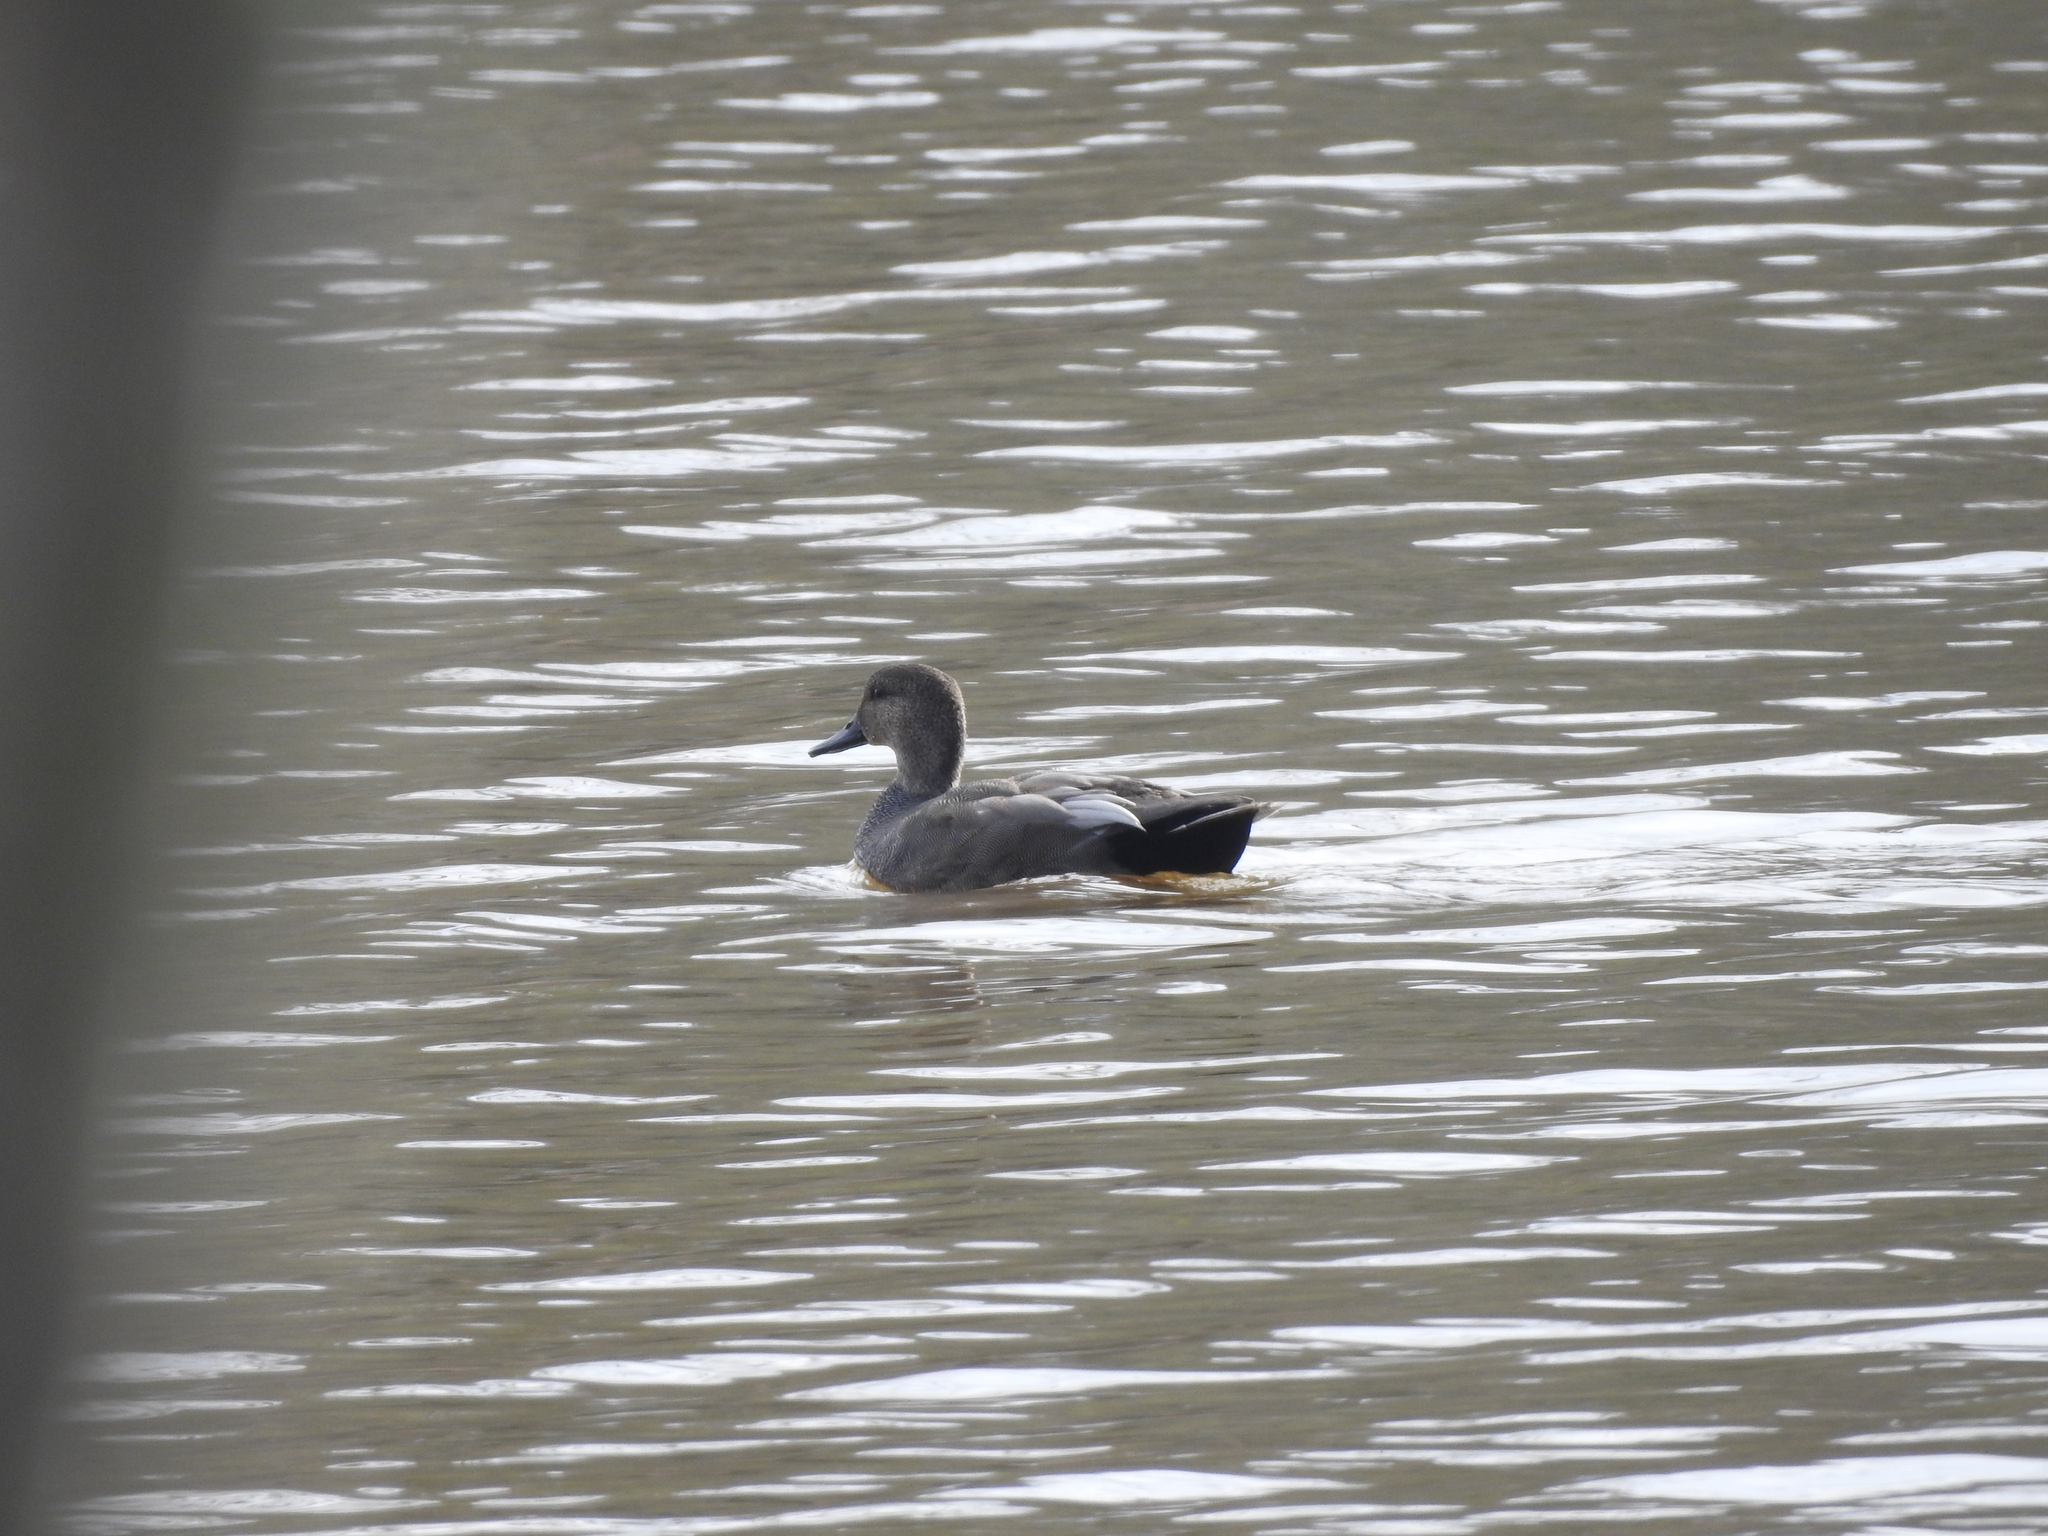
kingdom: Animalia
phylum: Chordata
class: Aves
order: Anseriformes
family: Anatidae
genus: Mareca
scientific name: Mareca strepera
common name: Gadwall
